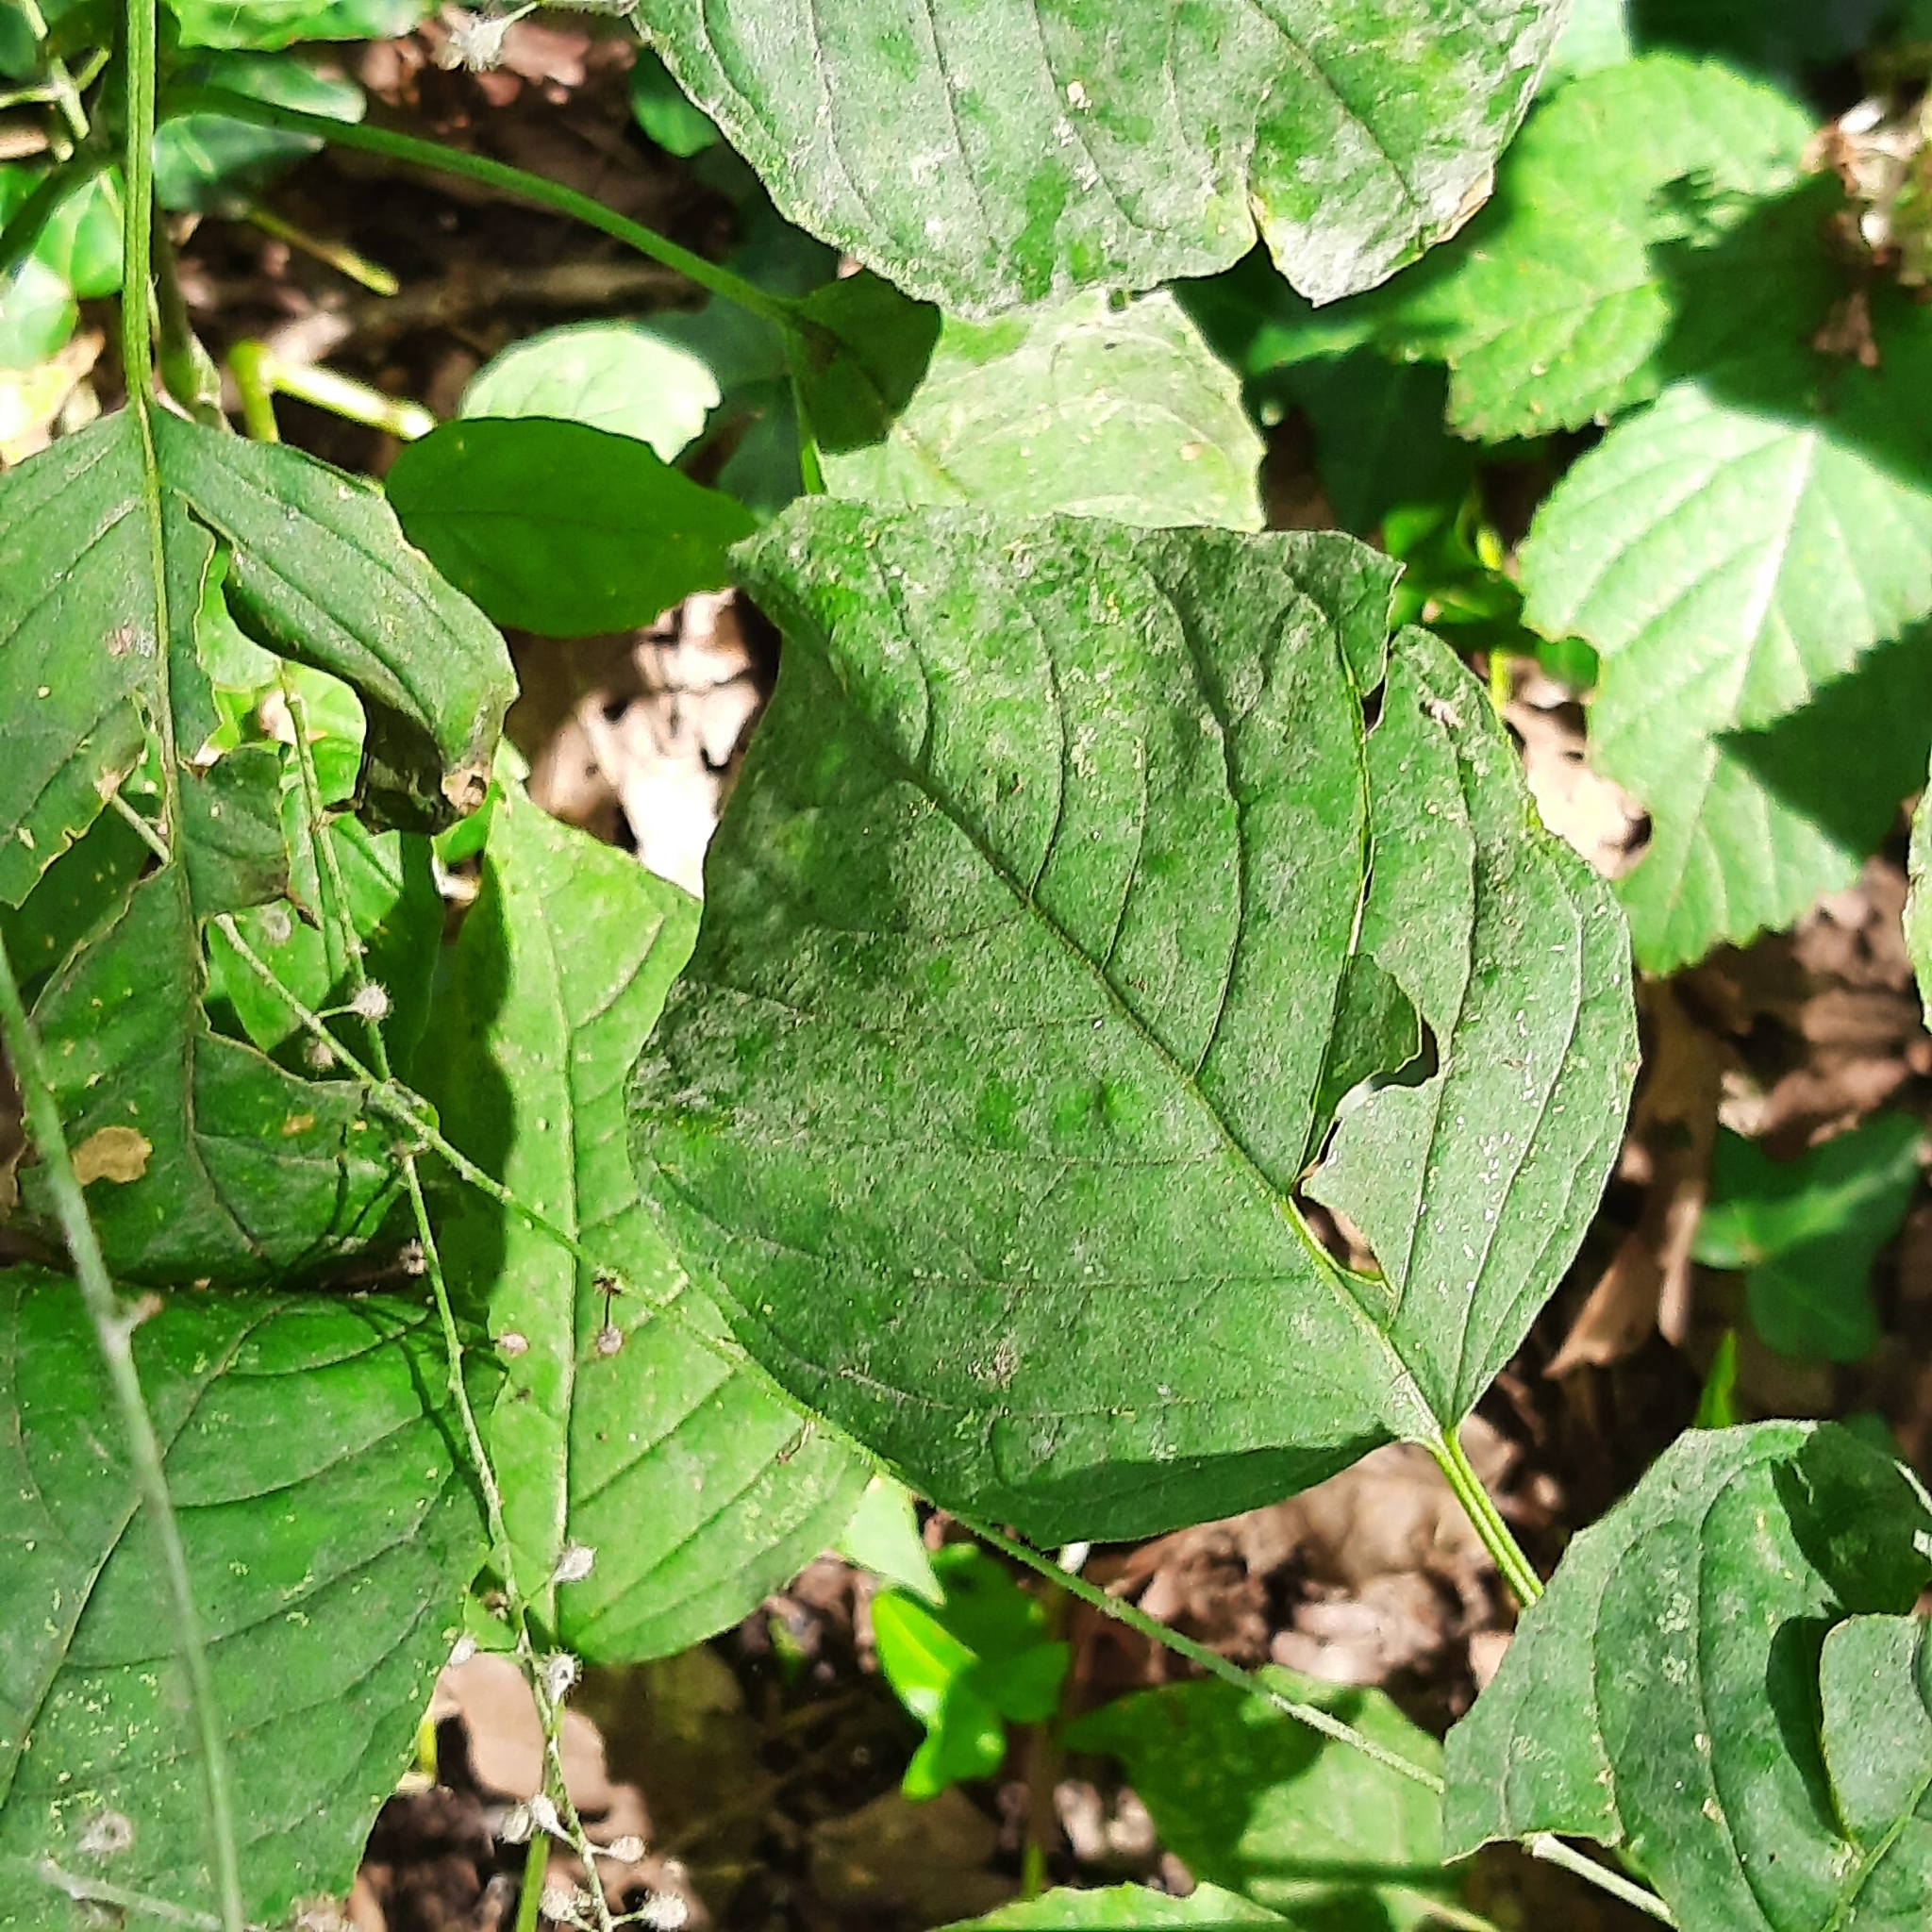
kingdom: Plantae
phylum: Tracheophyta
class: Magnoliopsida
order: Myrtales
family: Onagraceae
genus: Circaea
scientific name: Circaea lutetiana
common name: Enchanter's-nightshade
